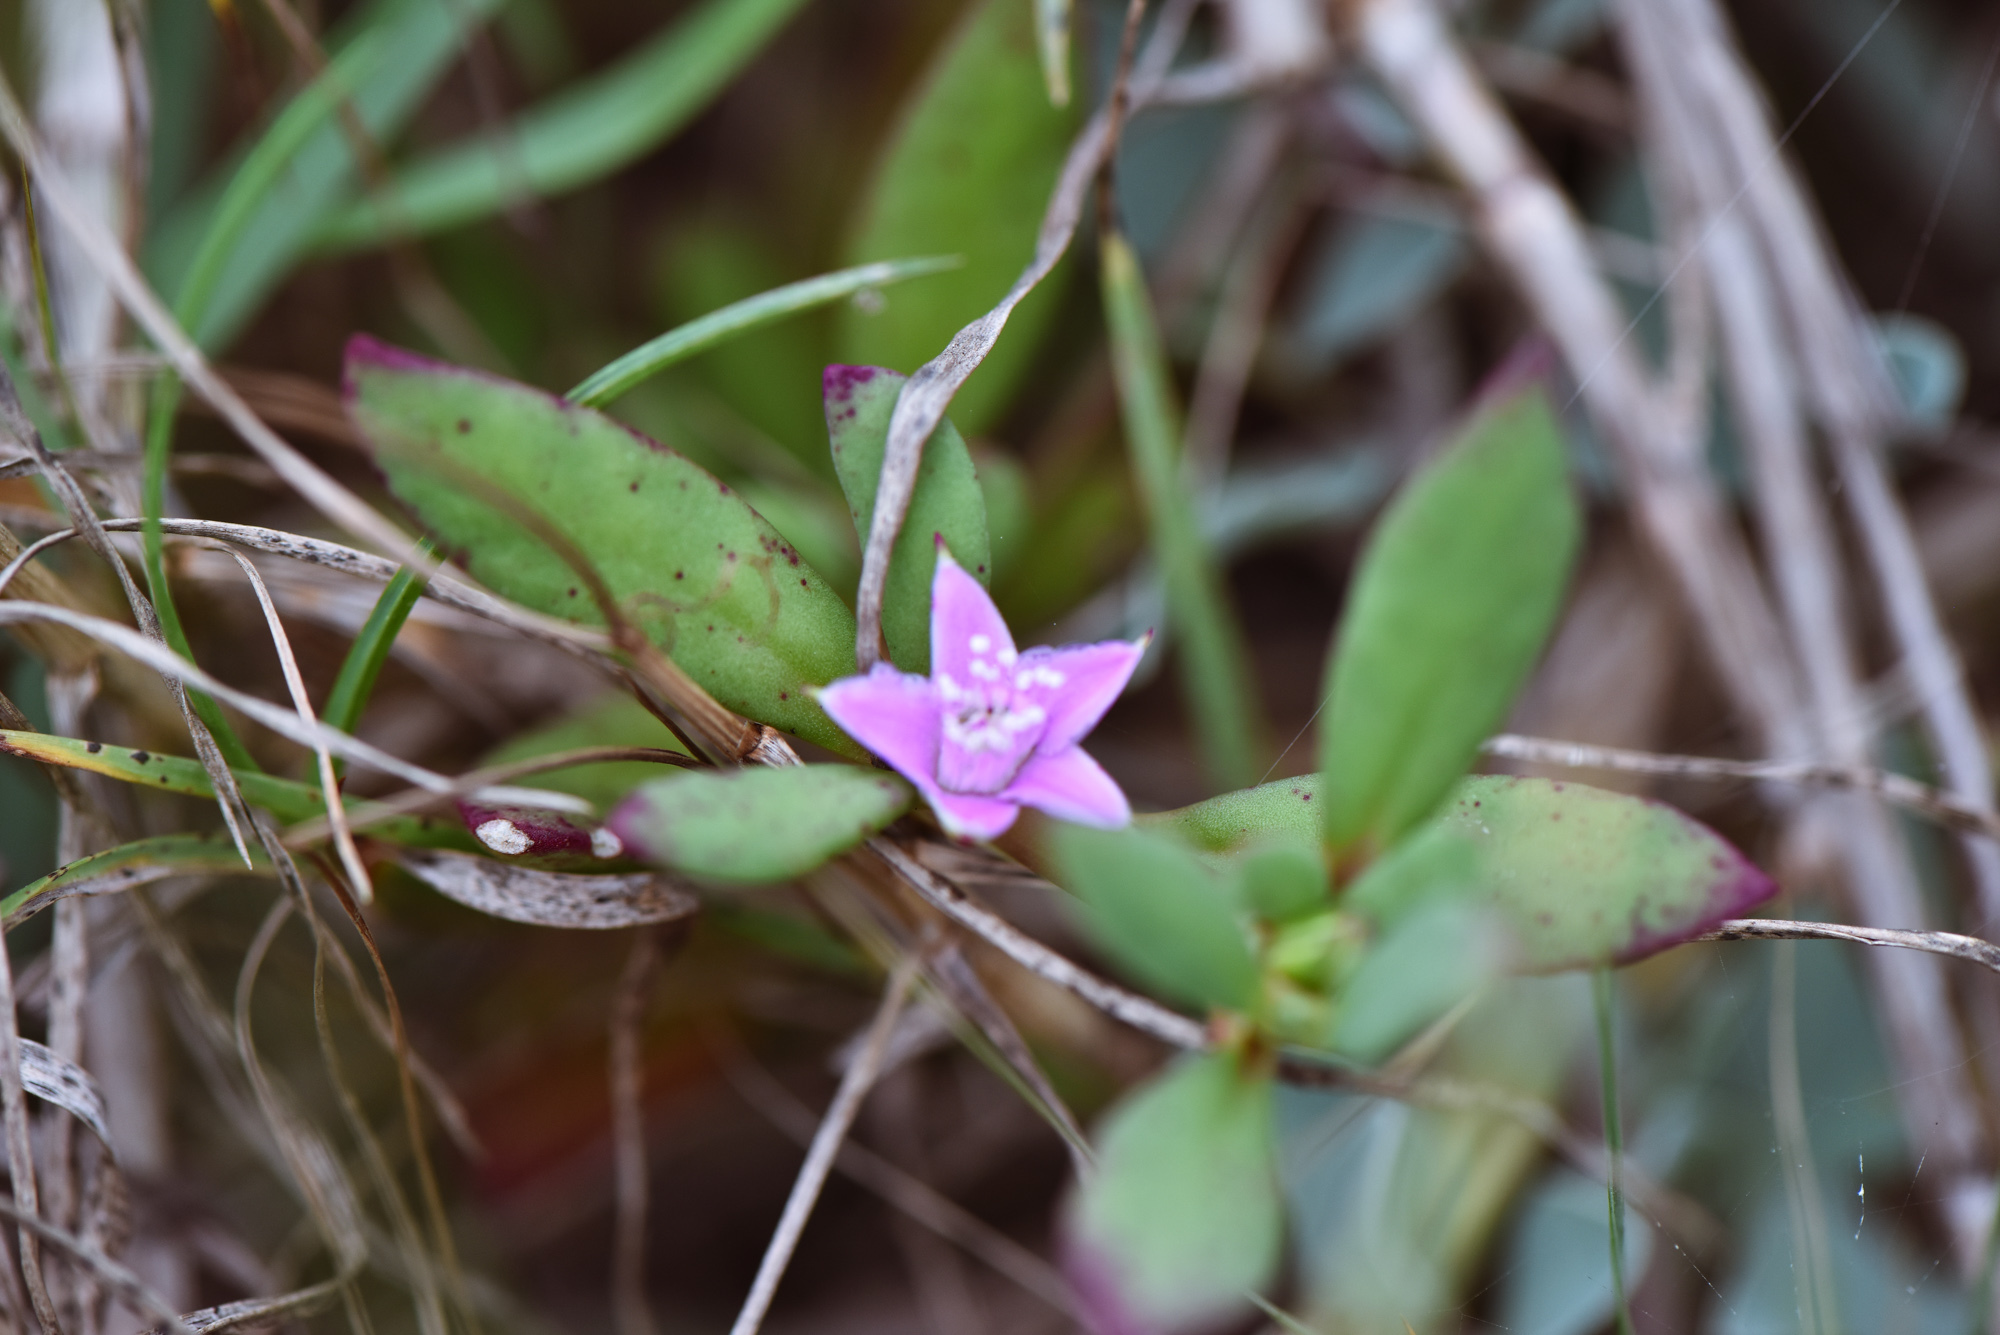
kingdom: Plantae
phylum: Tracheophyta
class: Magnoliopsida
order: Caryophyllales
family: Aizoaceae
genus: Sesuvium
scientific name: Sesuvium portulacastrum
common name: Sea-purslane
